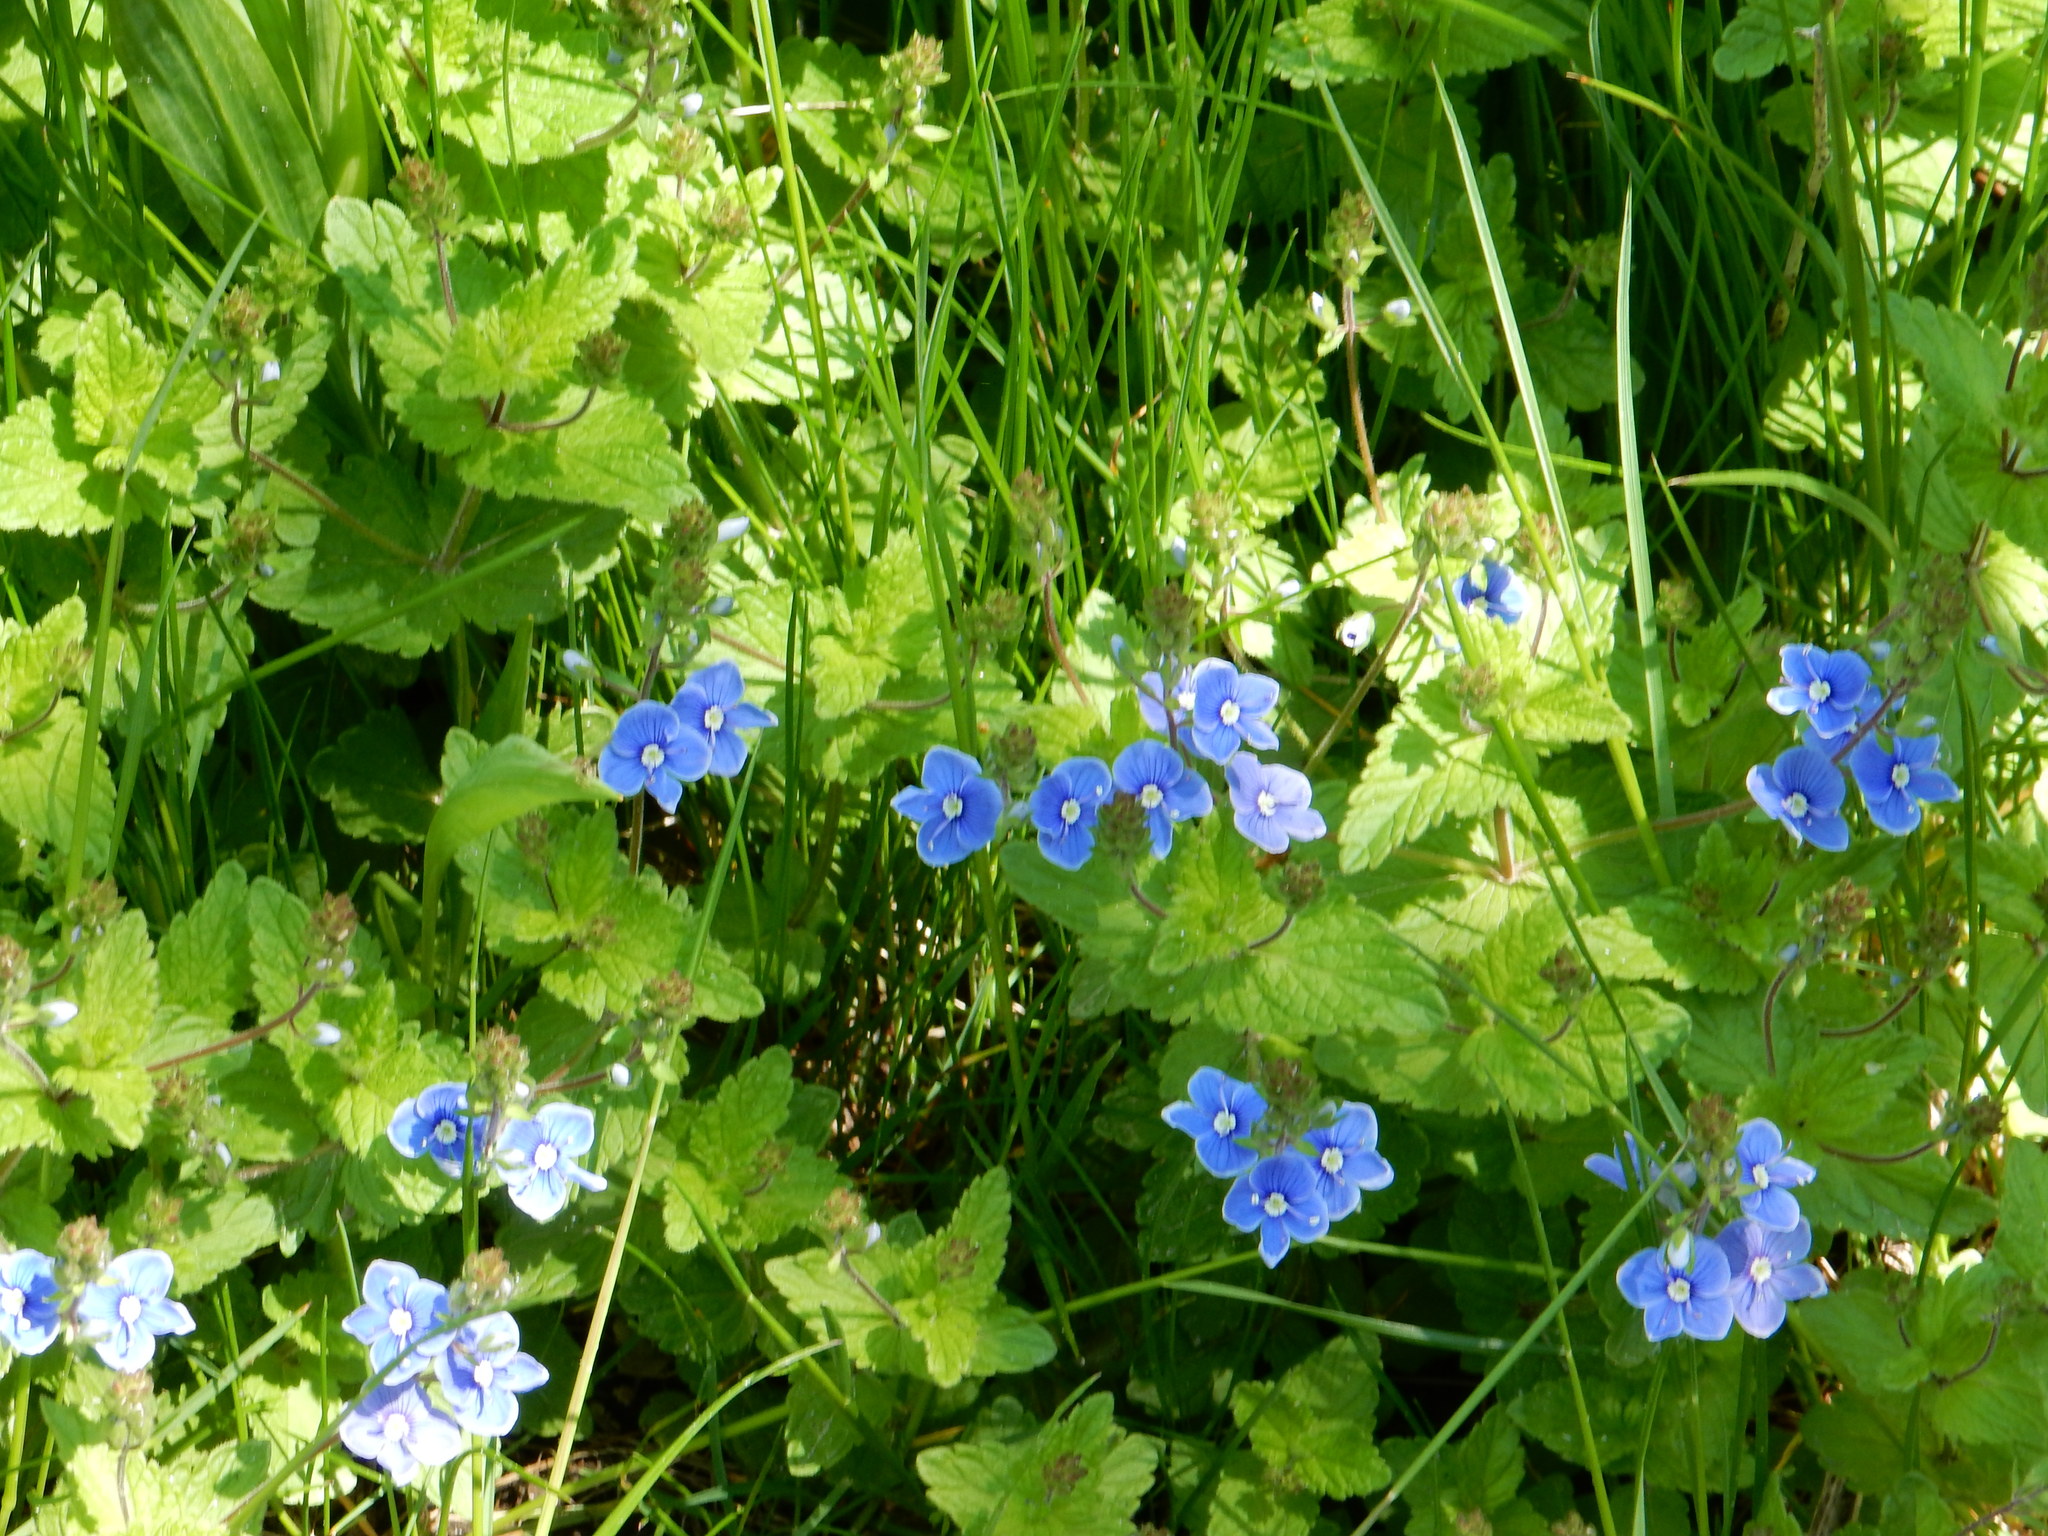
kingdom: Plantae
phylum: Tracheophyta
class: Magnoliopsida
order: Lamiales
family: Plantaginaceae
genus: Veronica
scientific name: Veronica chamaedrys
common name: Germander speedwell
